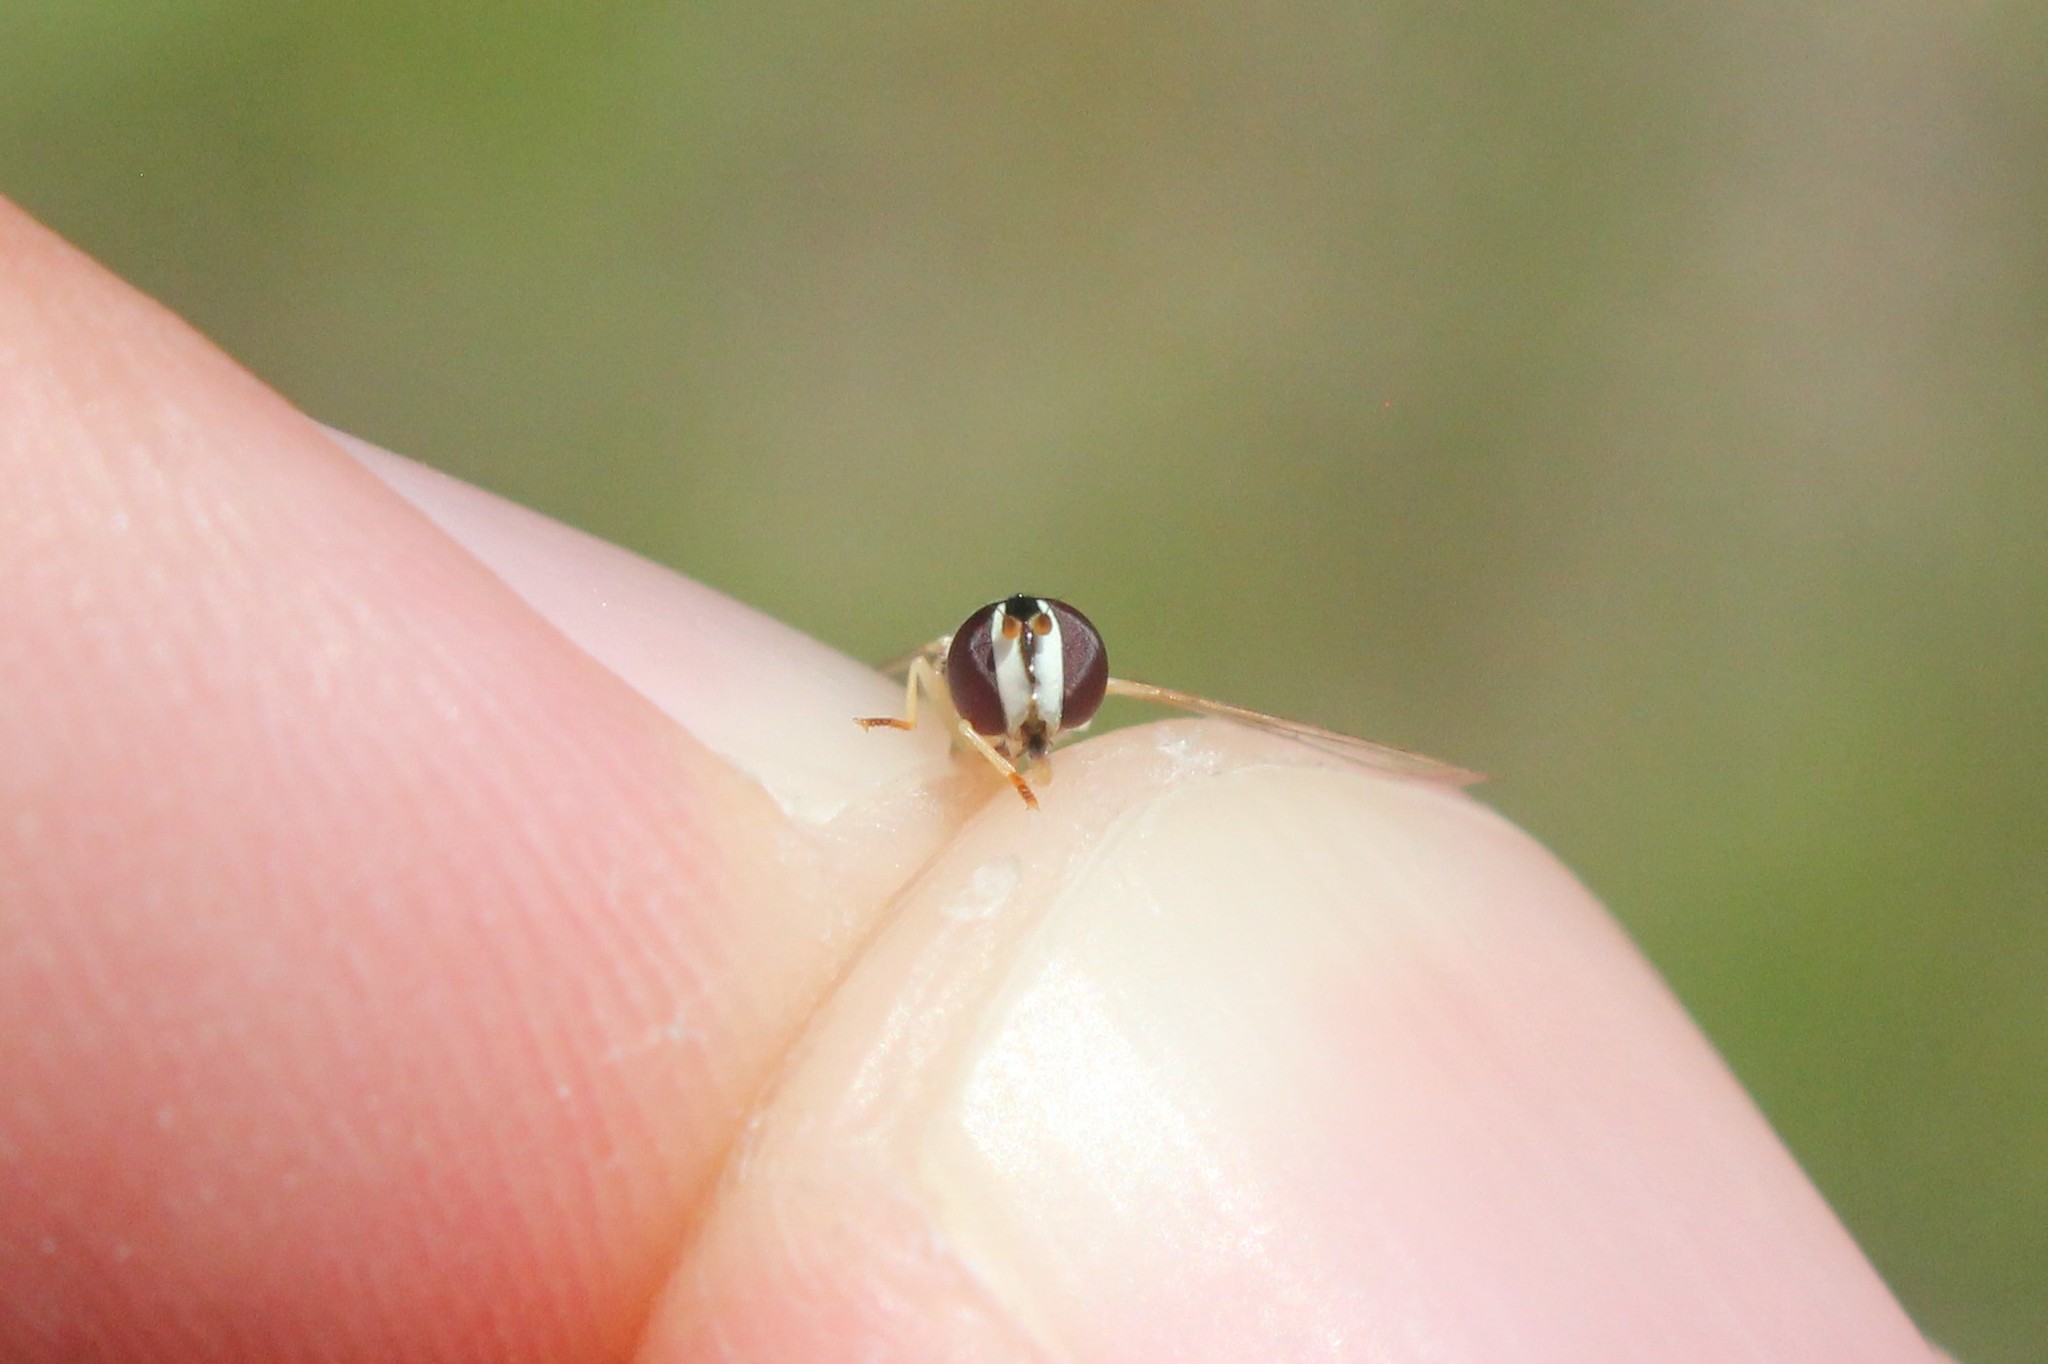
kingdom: Animalia
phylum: Arthropoda
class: Insecta
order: Diptera
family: Syrphidae
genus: Allograpta
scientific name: Allograpta exotica
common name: Syrphid fly
